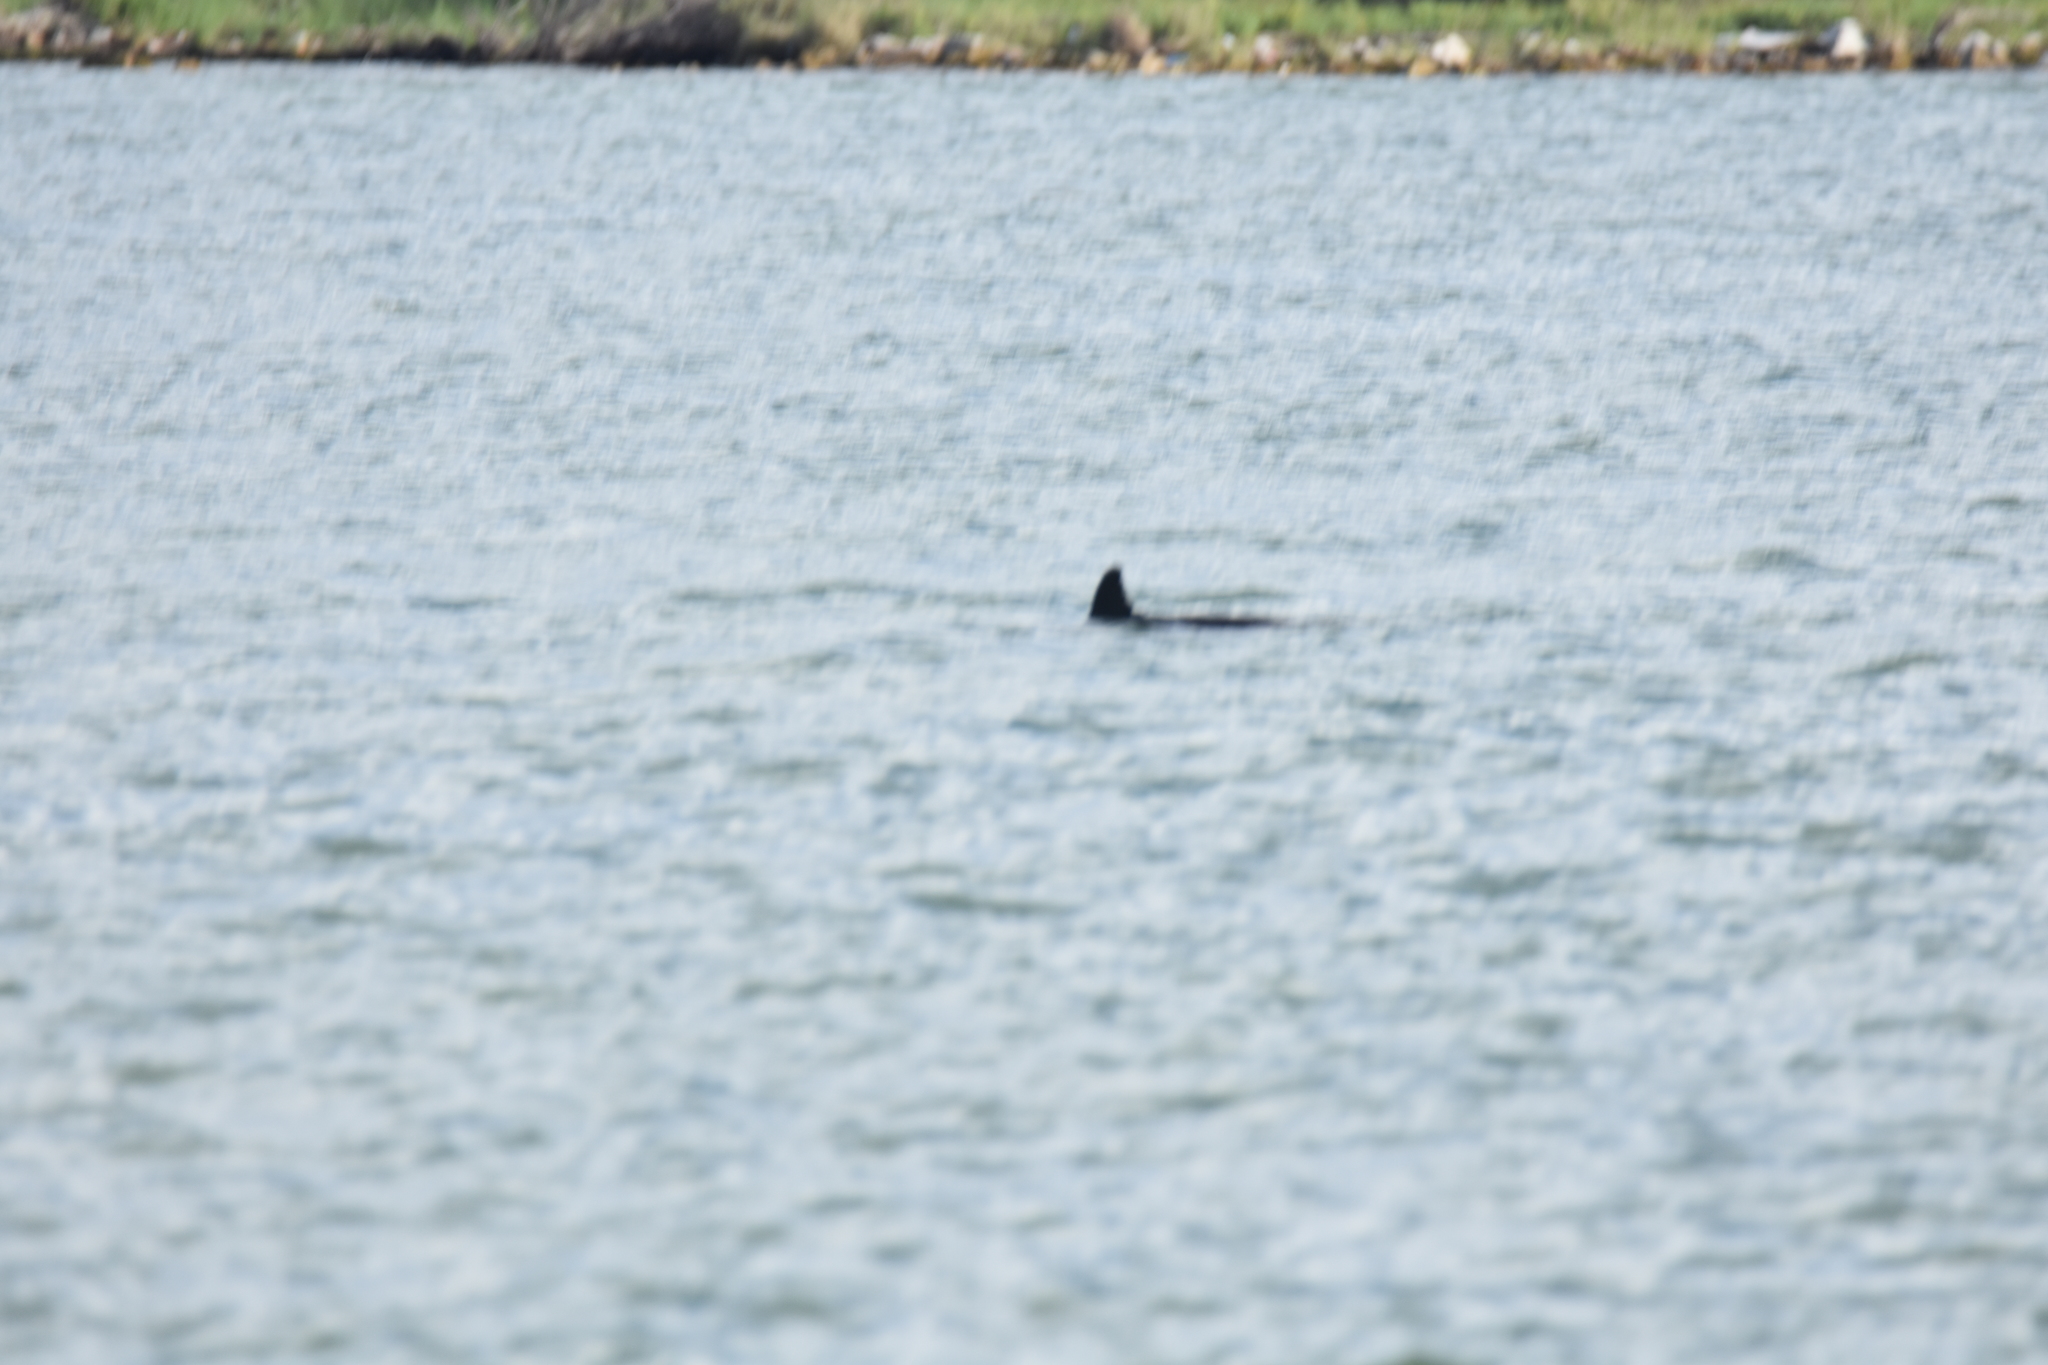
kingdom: Animalia
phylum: Chordata
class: Mammalia
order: Cetacea
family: Delphinidae
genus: Tursiops
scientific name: Tursiops truncatus
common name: Bottlenose dolphin
